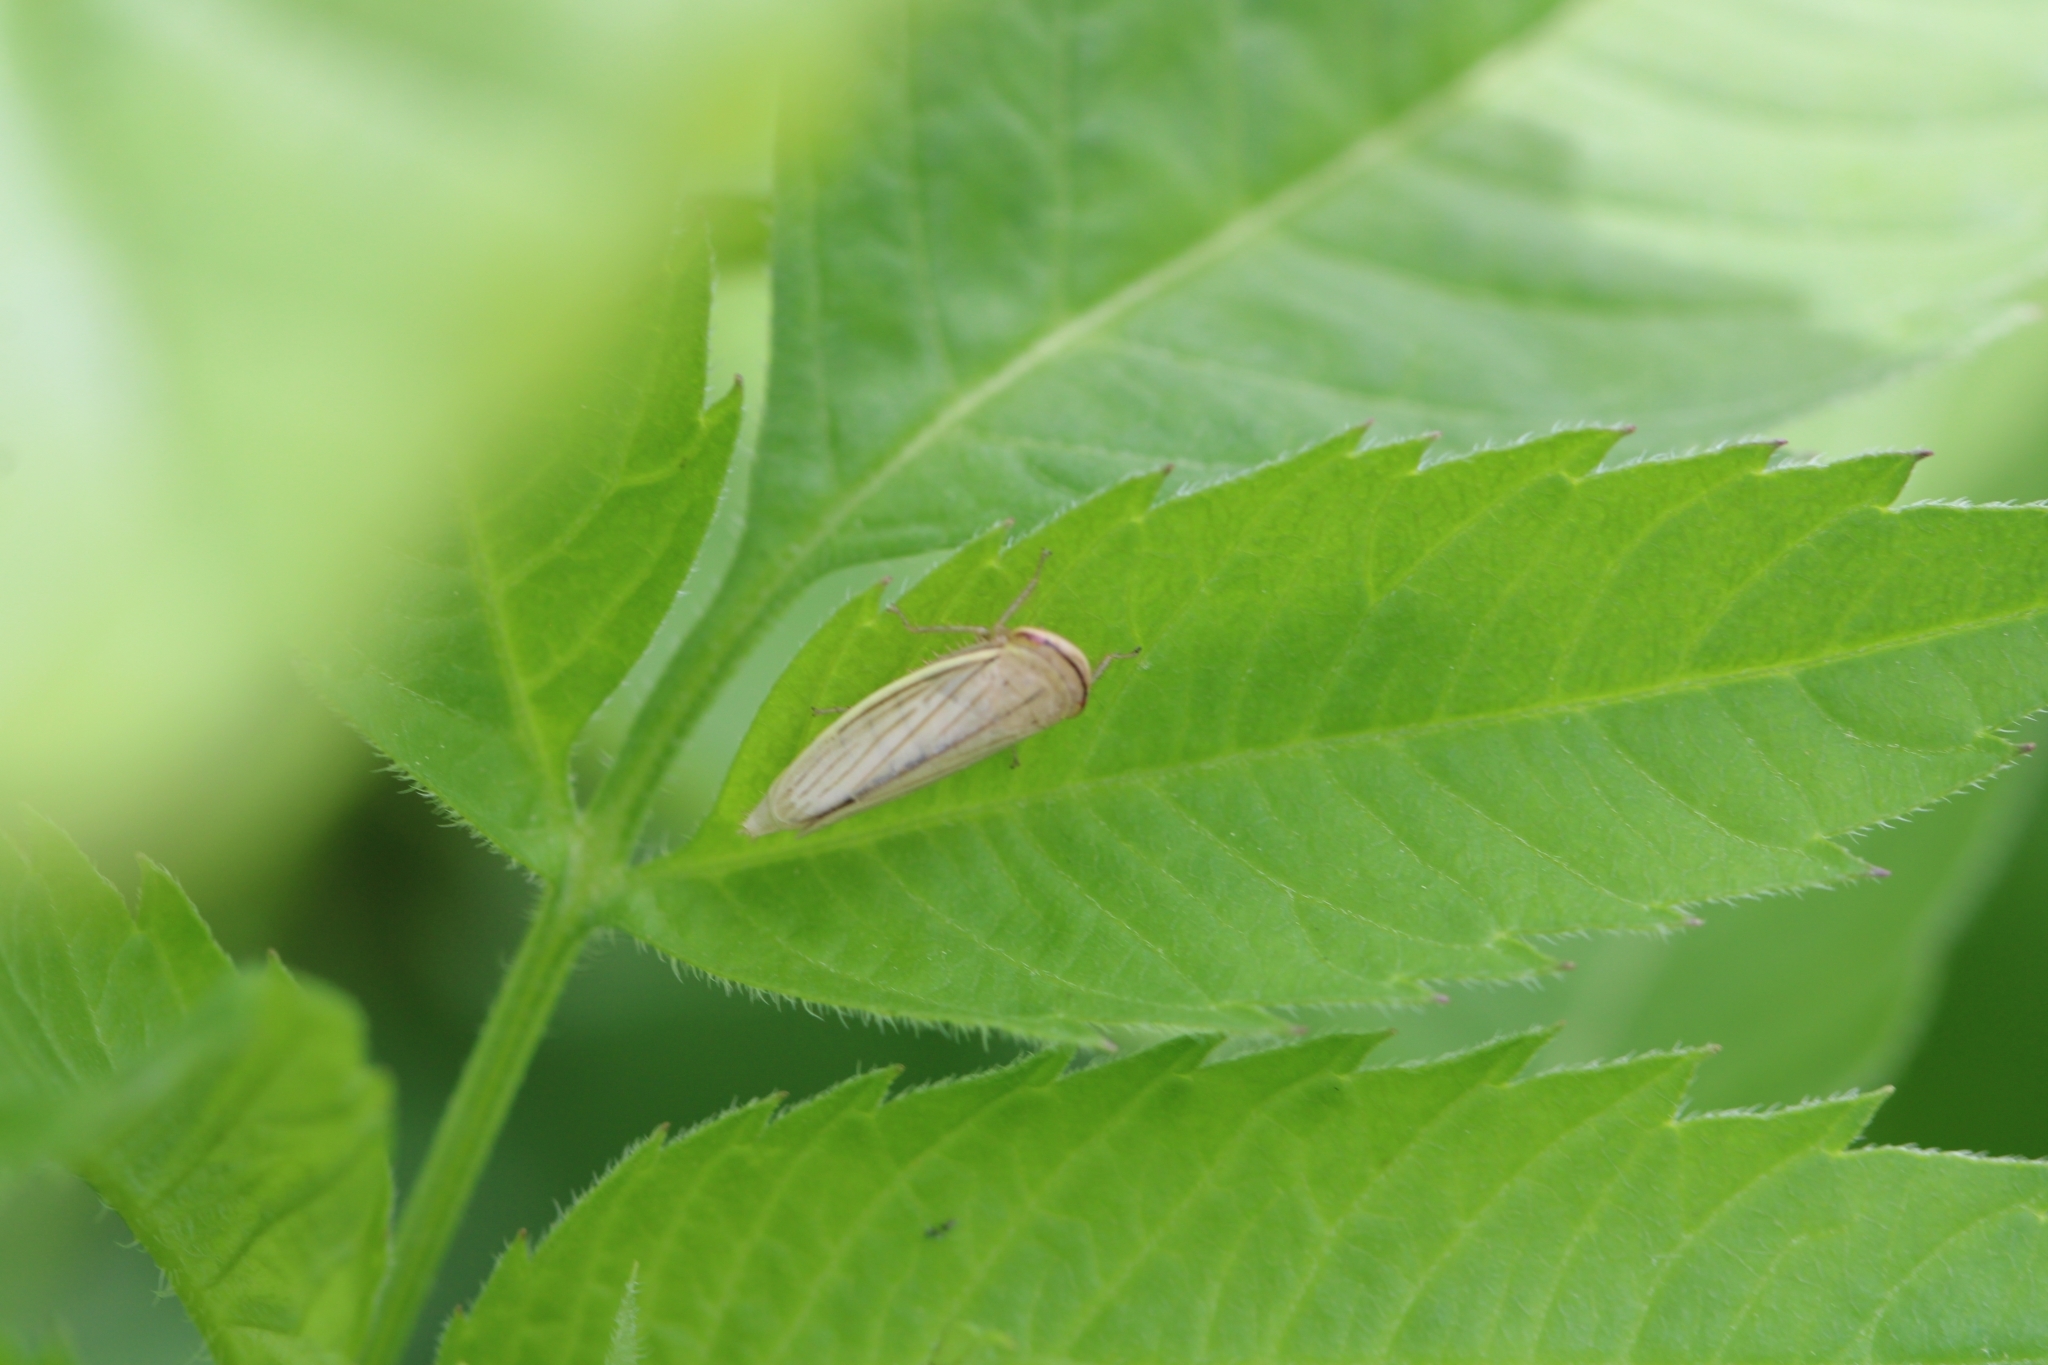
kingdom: Animalia
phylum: Arthropoda
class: Insecta
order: Hemiptera
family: Cicadellidae
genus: Athysanus
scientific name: Athysanus argentarius
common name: Silver leafhopper
